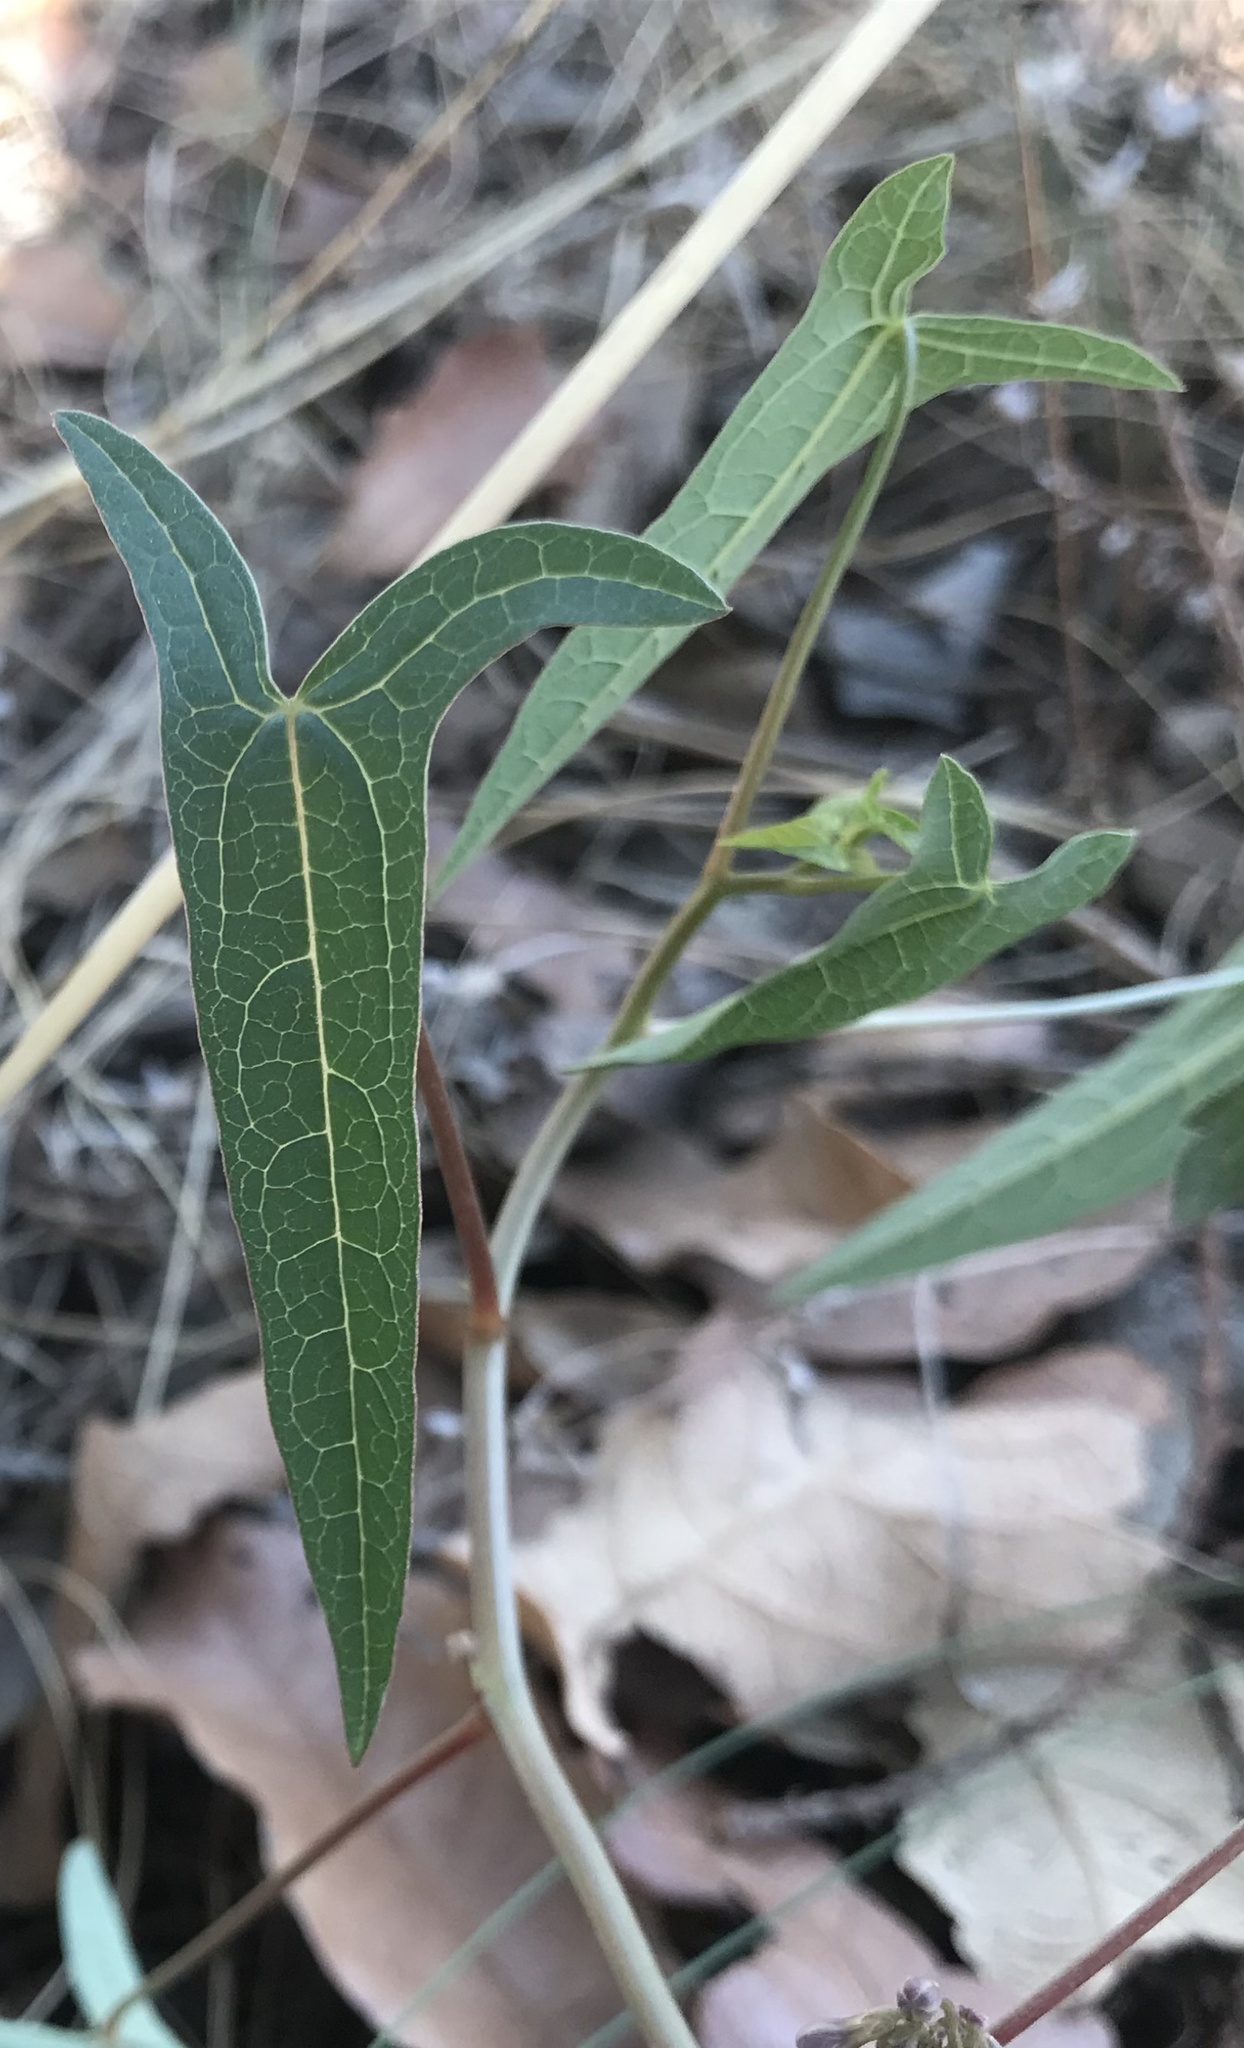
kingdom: Plantae
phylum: Tracheophyta
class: Magnoliopsida
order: Brassicales
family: Caricaceae
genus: Jarilla
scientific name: Jarilla heterophylla
